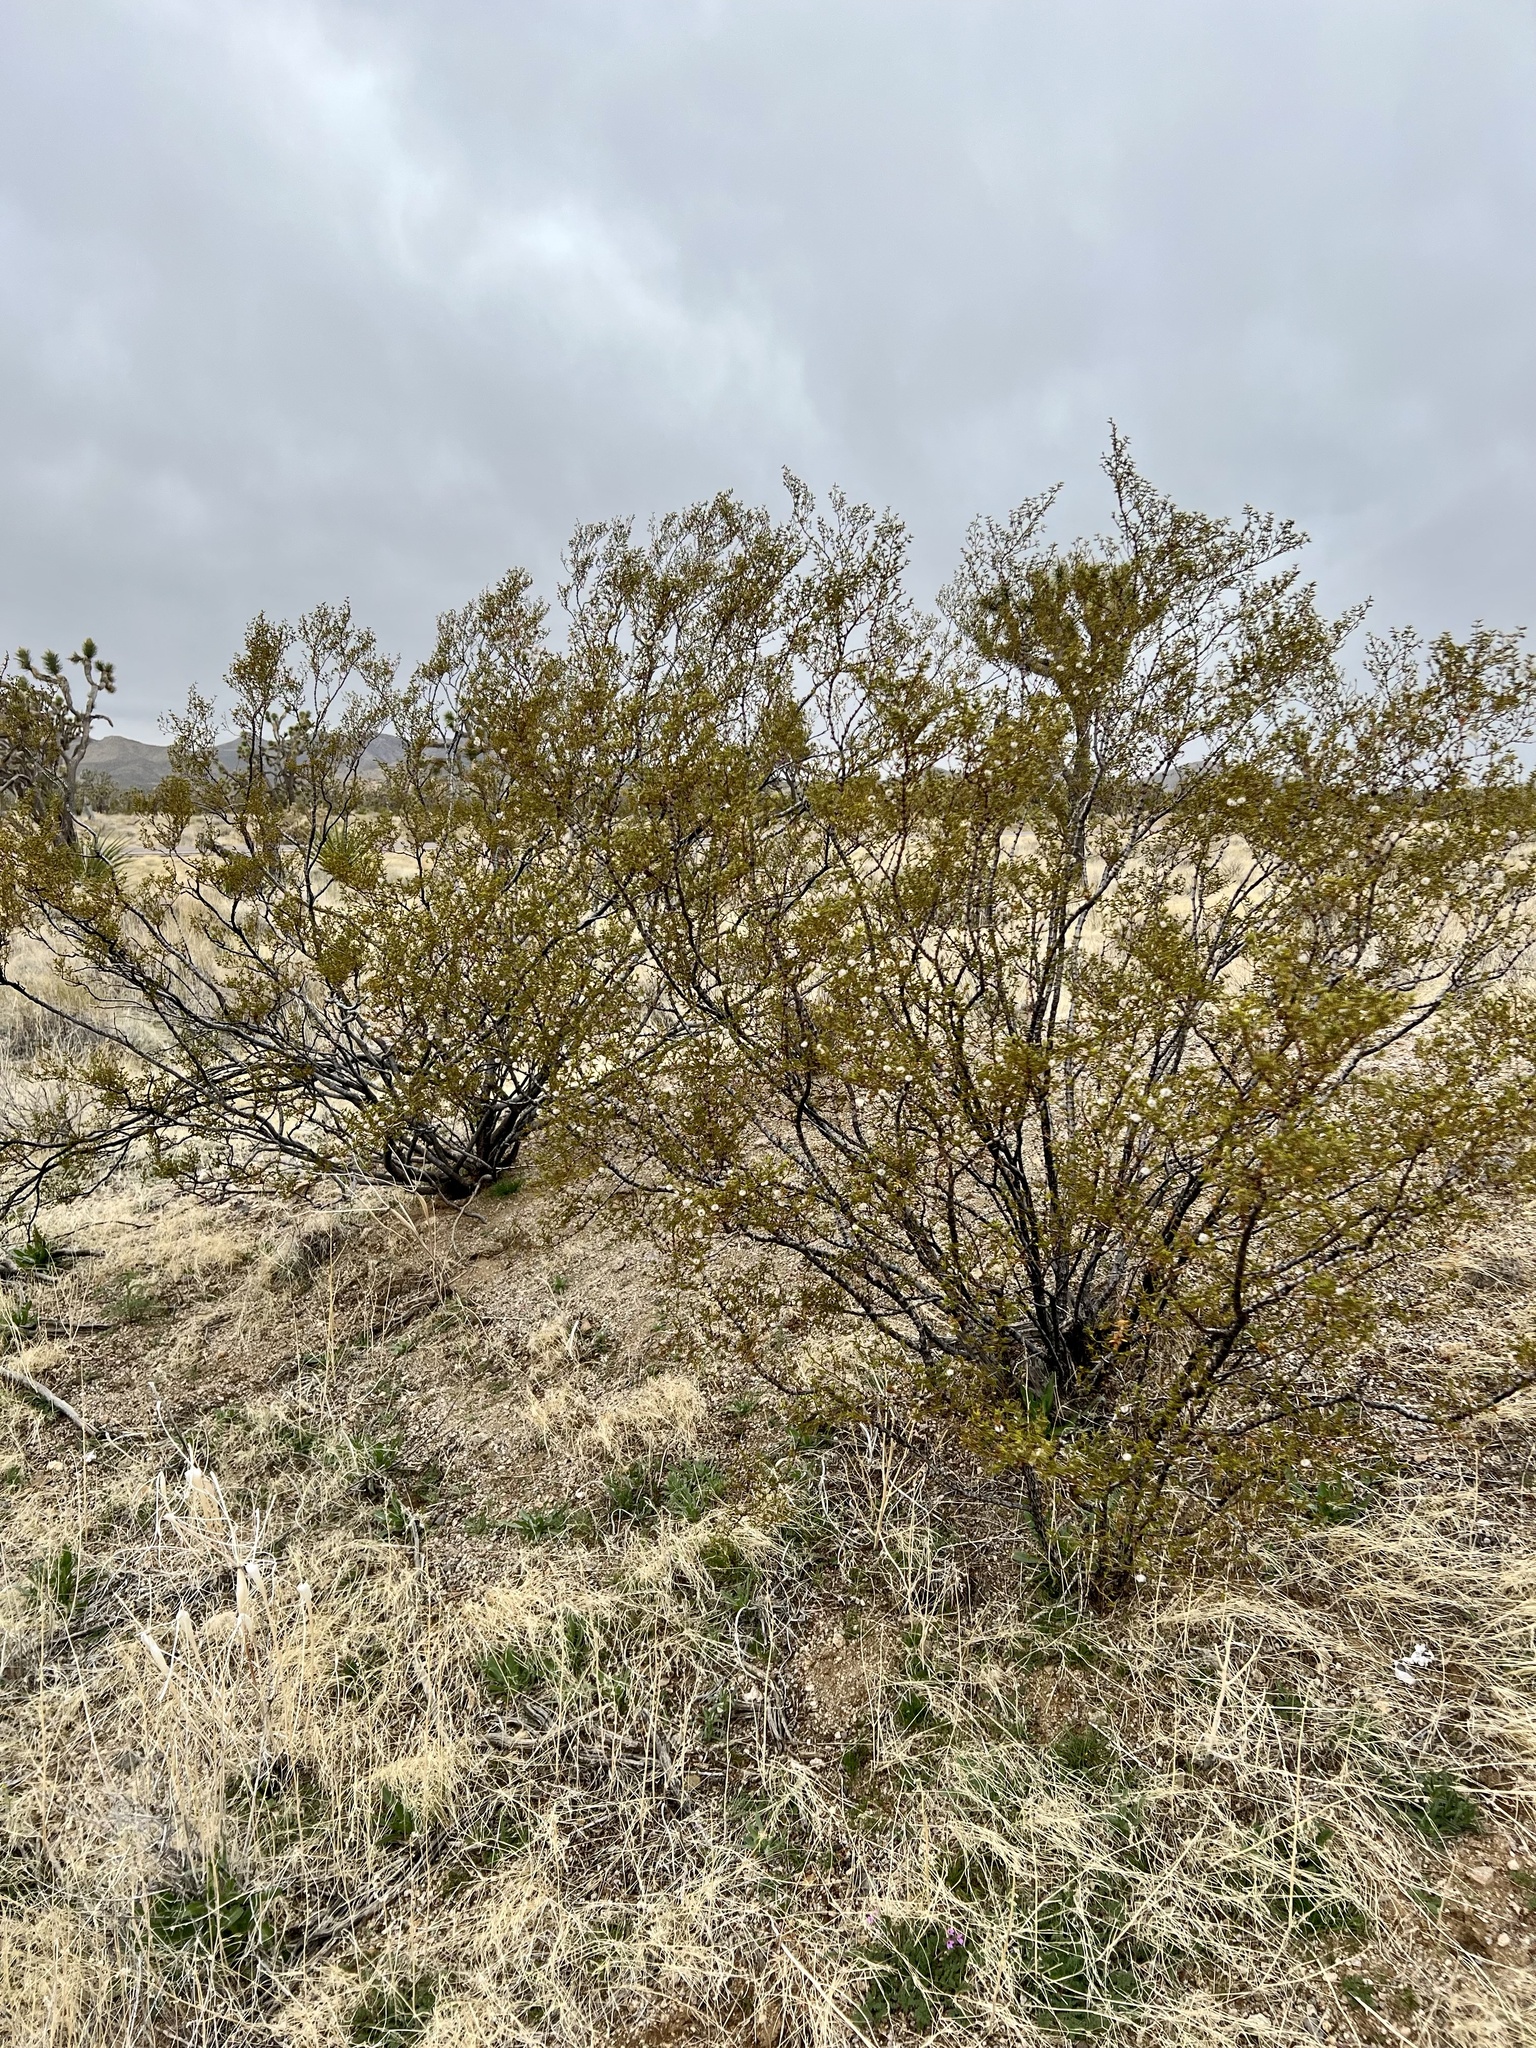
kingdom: Plantae
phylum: Tracheophyta
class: Magnoliopsida
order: Zygophyllales
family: Zygophyllaceae
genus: Larrea
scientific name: Larrea tridentata
